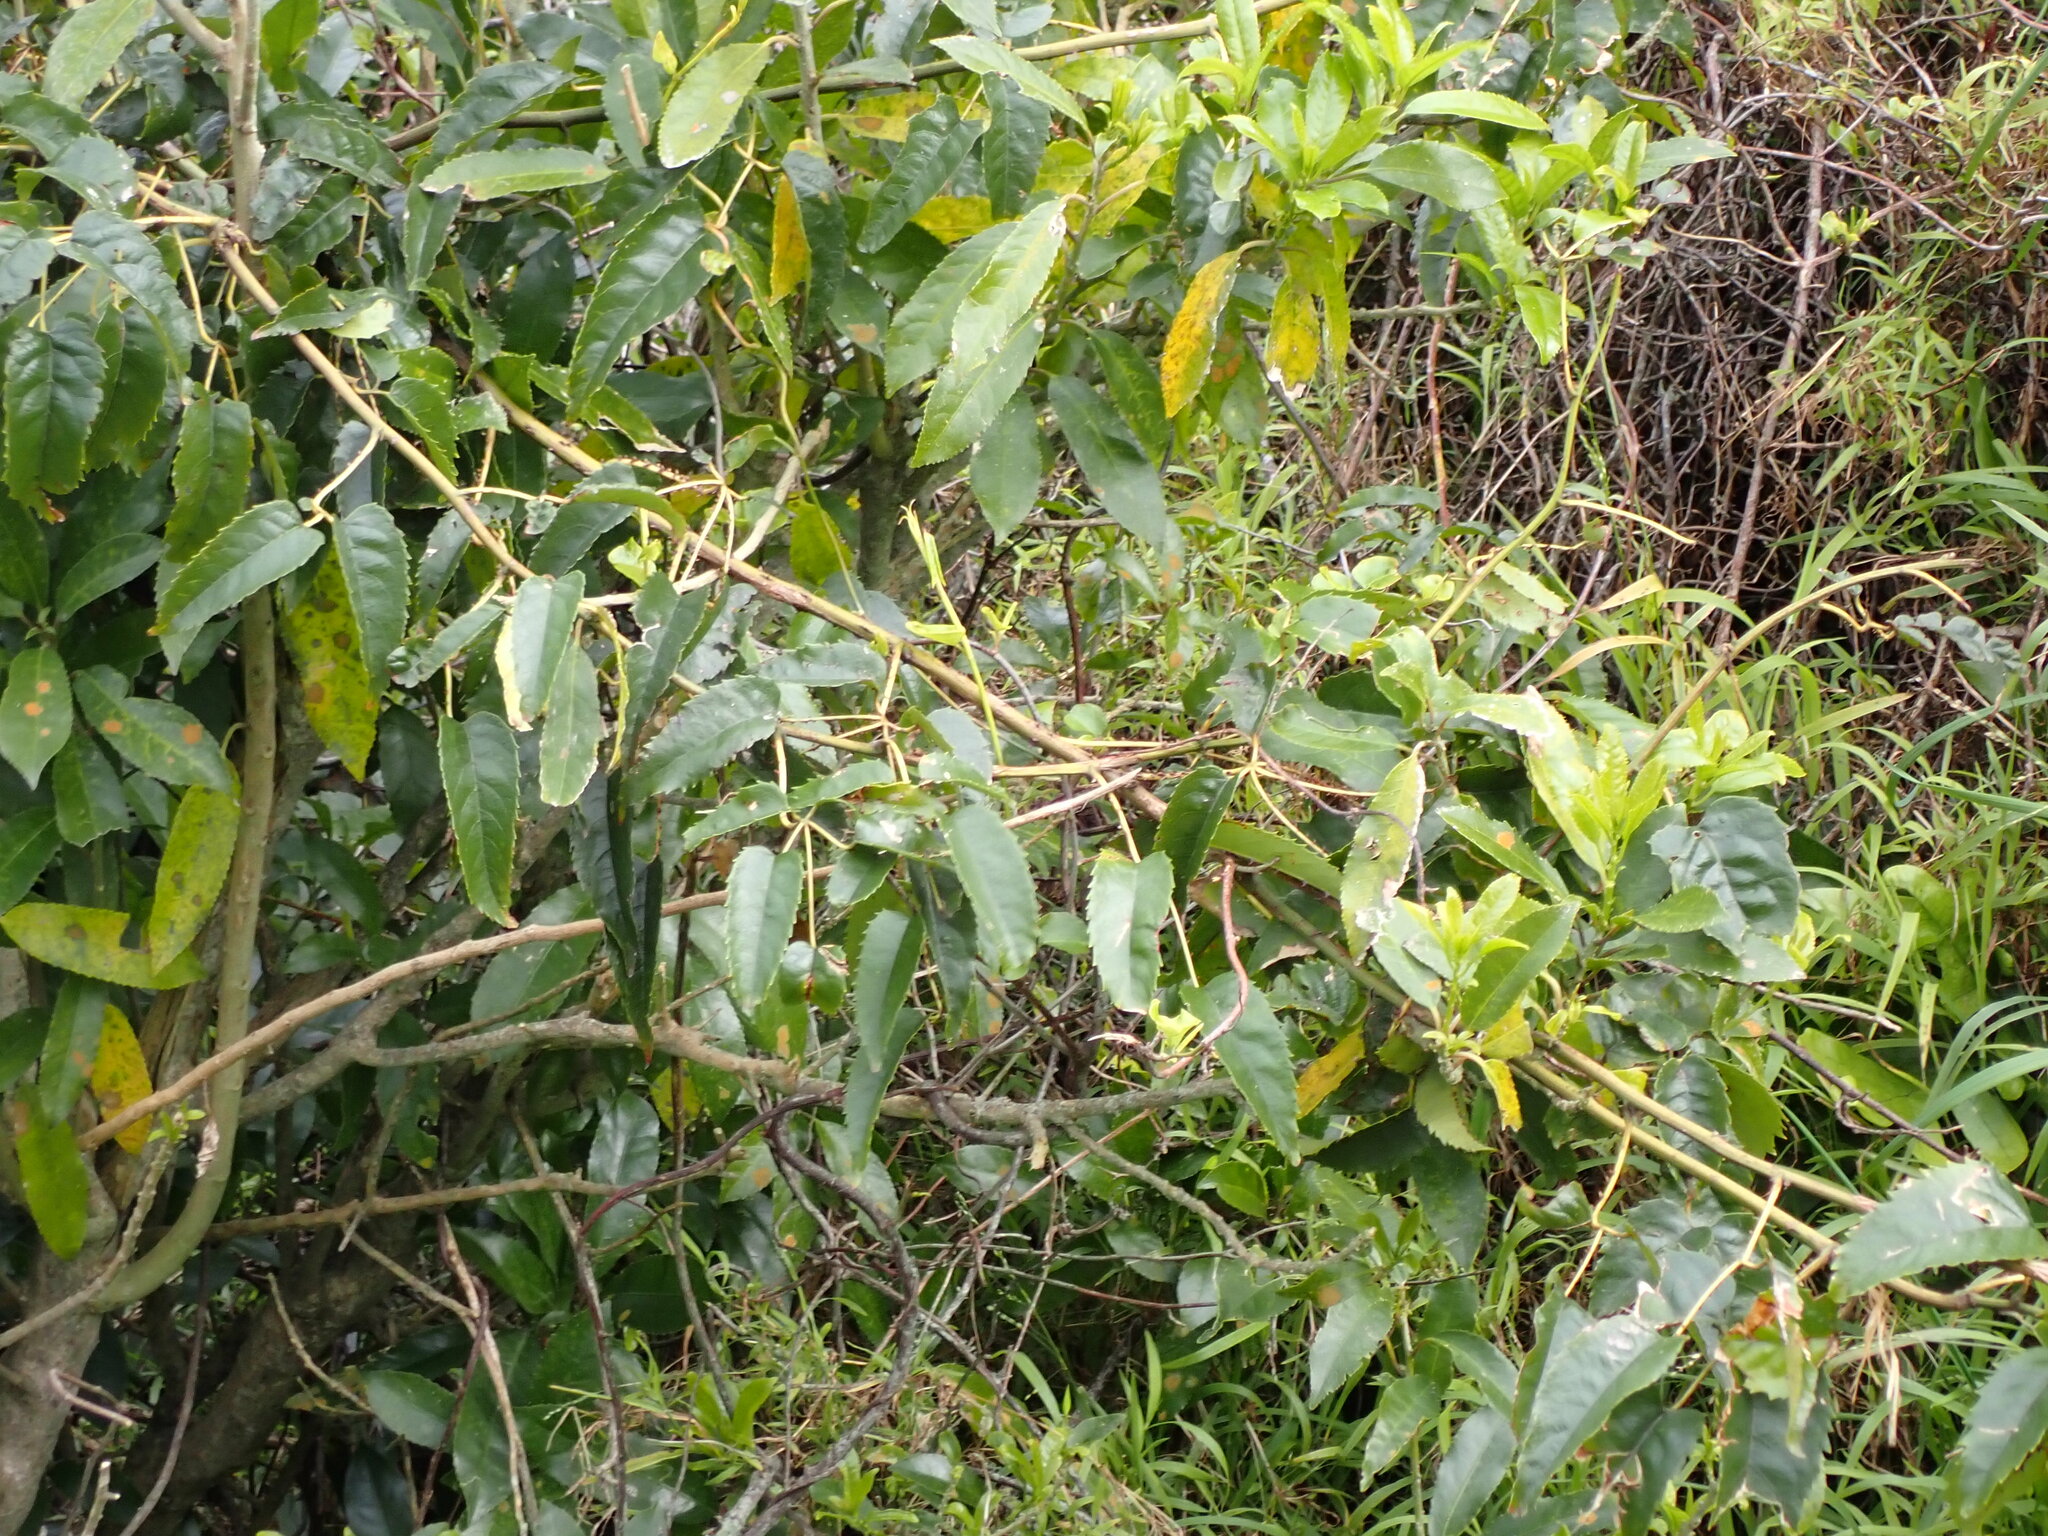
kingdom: Plantae
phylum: Tracheophyta
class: Magnoliopsida
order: Rosales
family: Rosaceae
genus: Rubus
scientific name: Rubus cissoides
